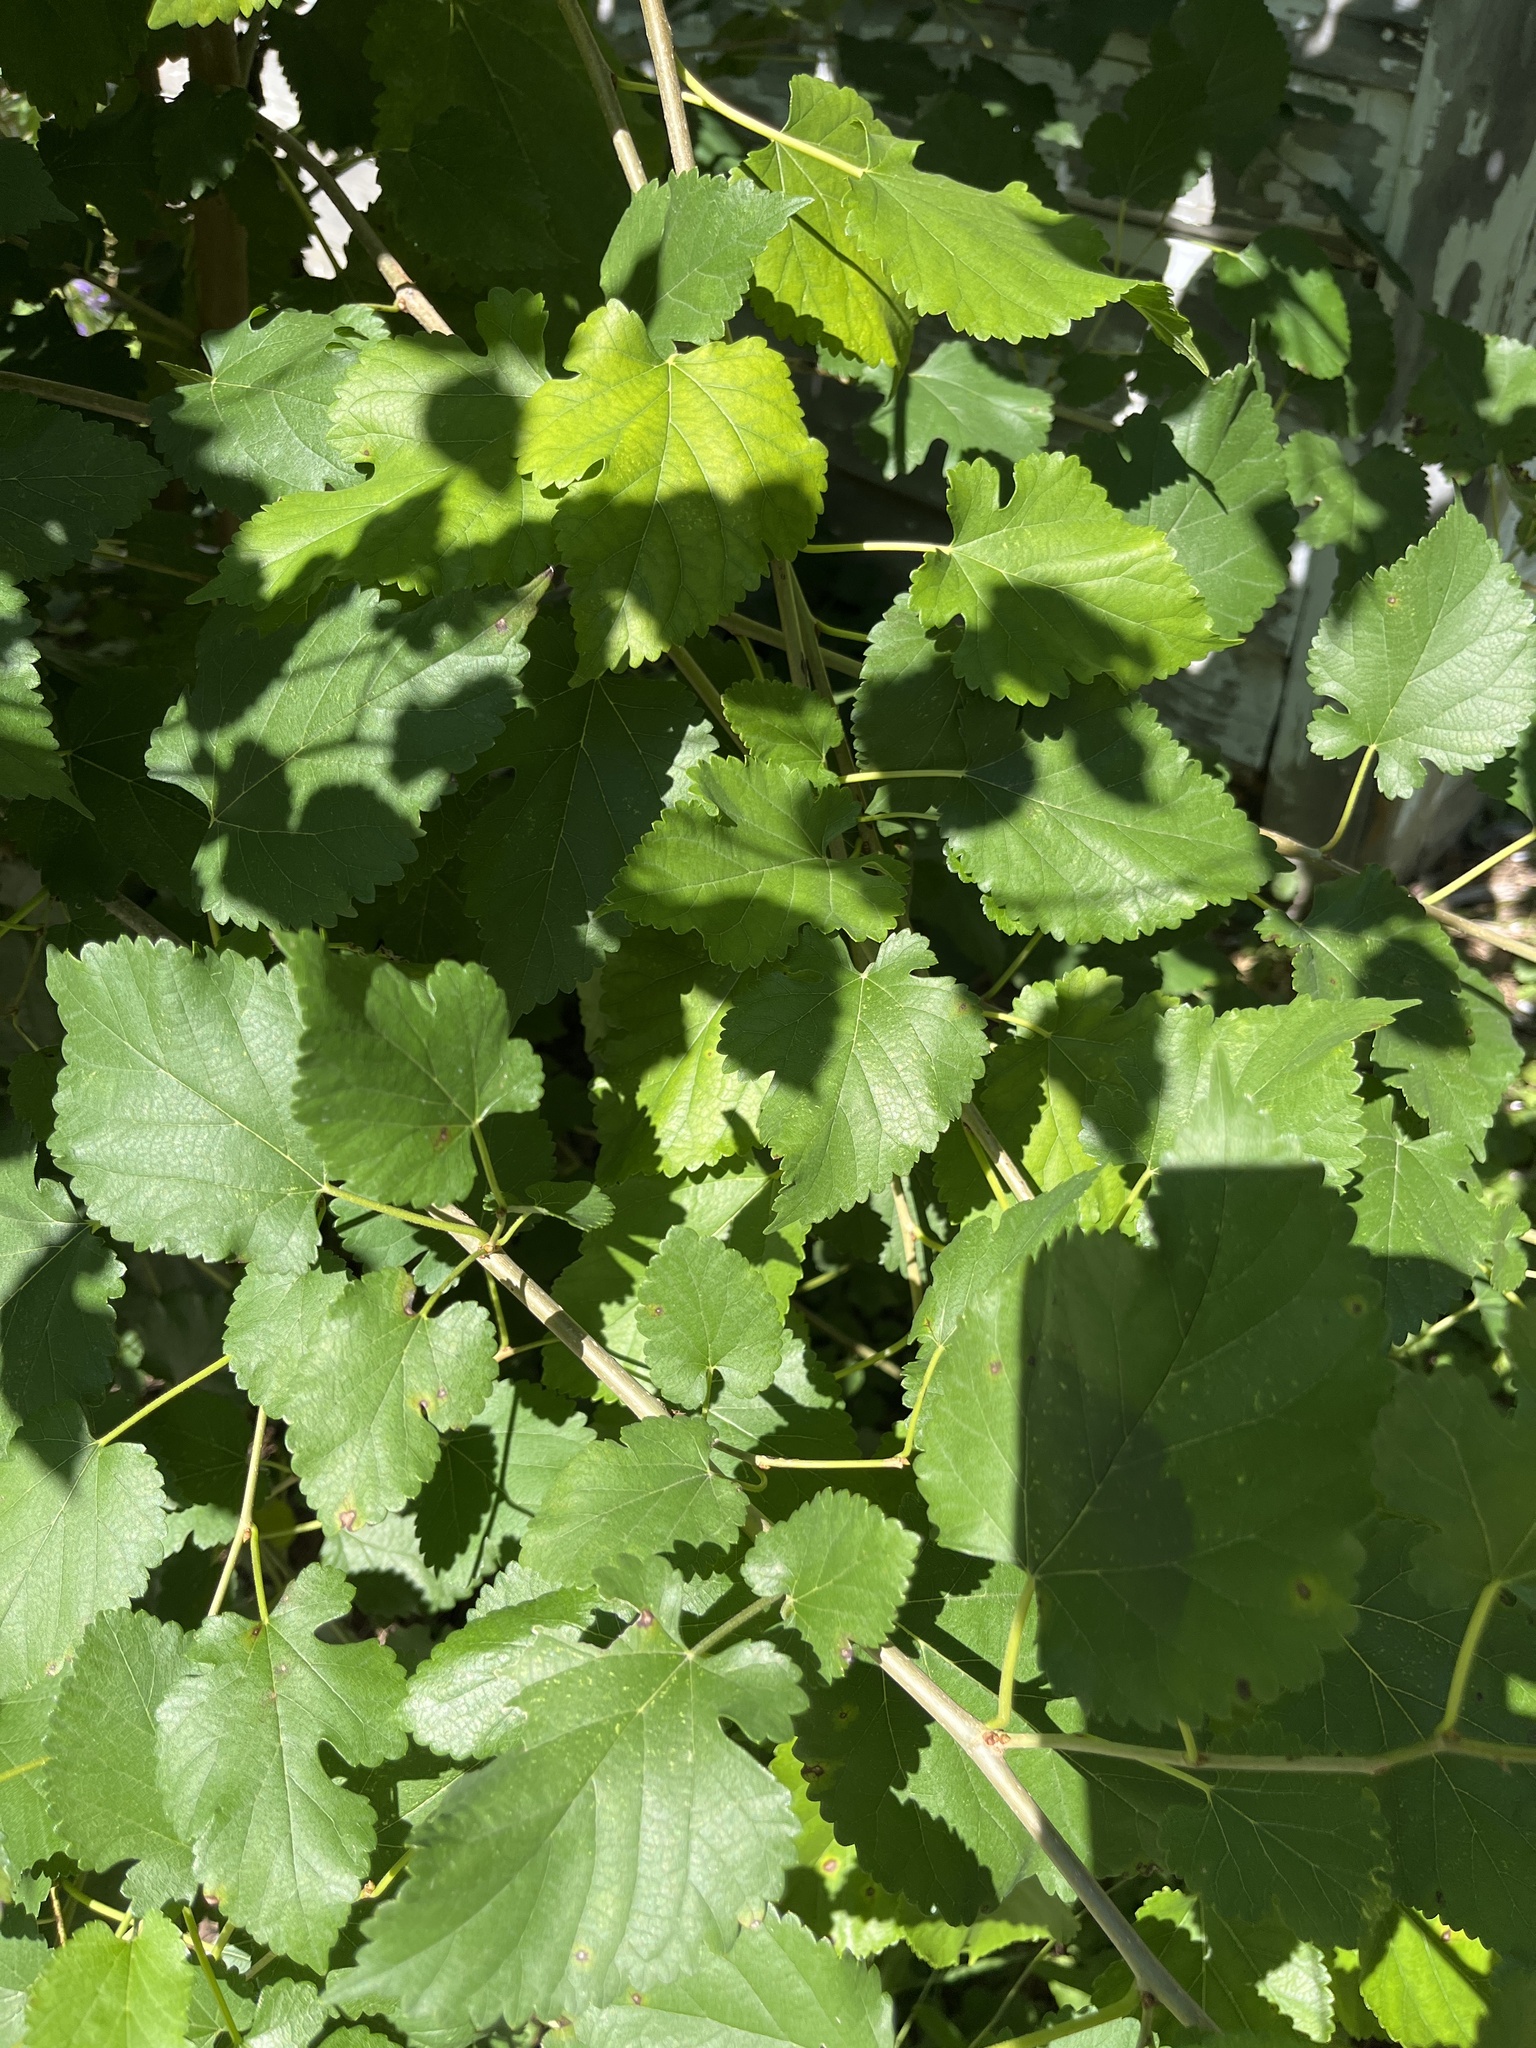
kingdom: Plantae
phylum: Tracheophyta
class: Magnoliopsida
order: Rosales
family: Moraceae
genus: Morus
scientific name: Morus alba
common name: White mulberry
